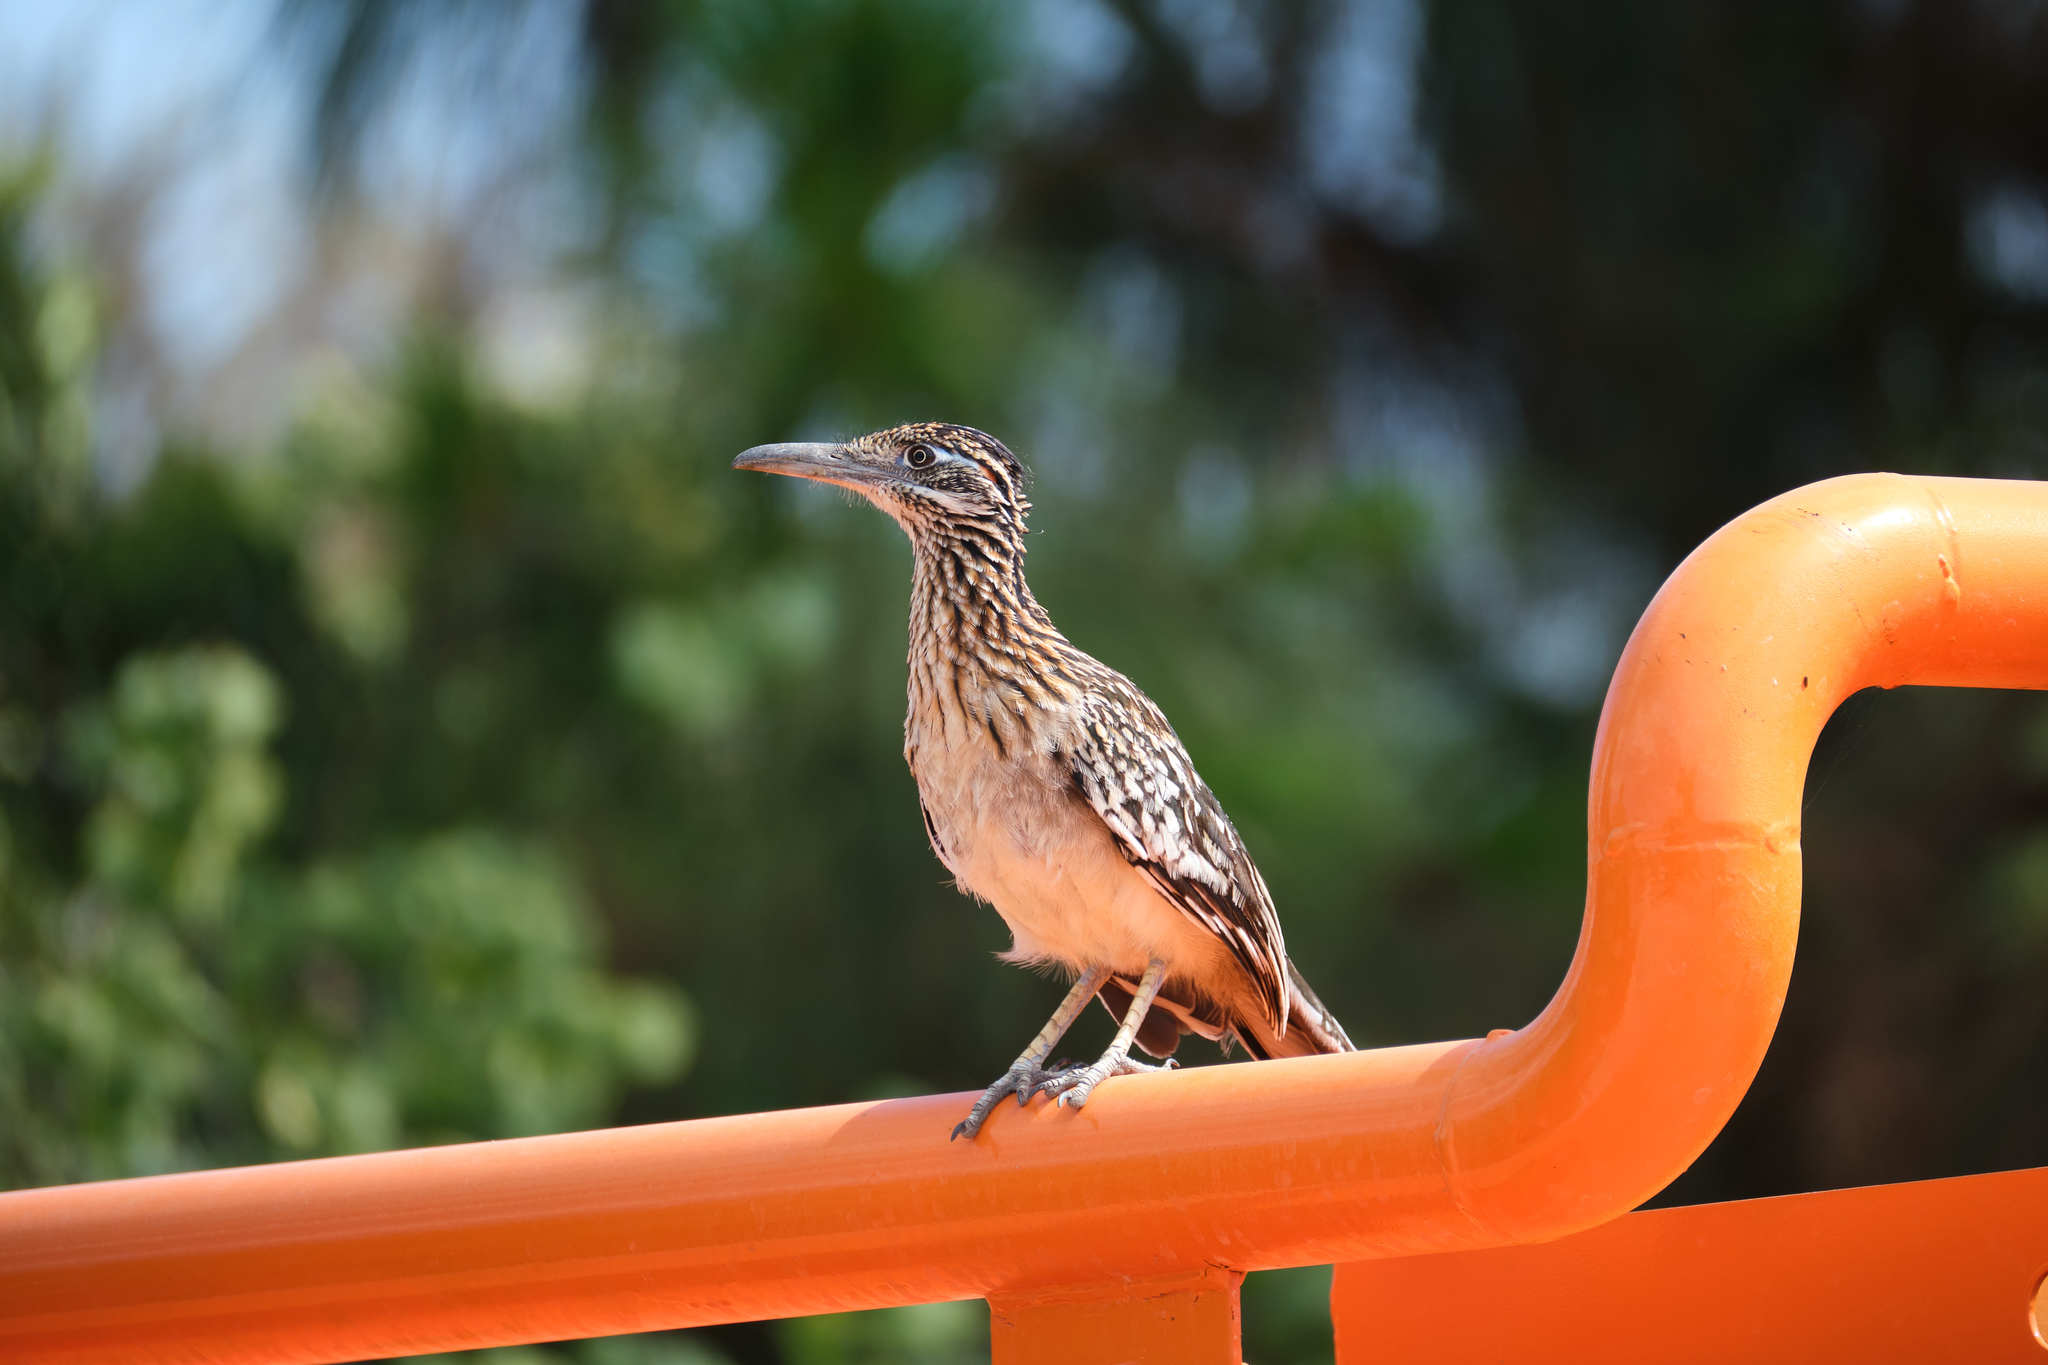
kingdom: Animalia
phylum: Chordata
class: Aves
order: Cuculiformes
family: Cuculidae
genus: Geococcyx
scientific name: Geococcyx californianus
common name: Greater roadrunner
